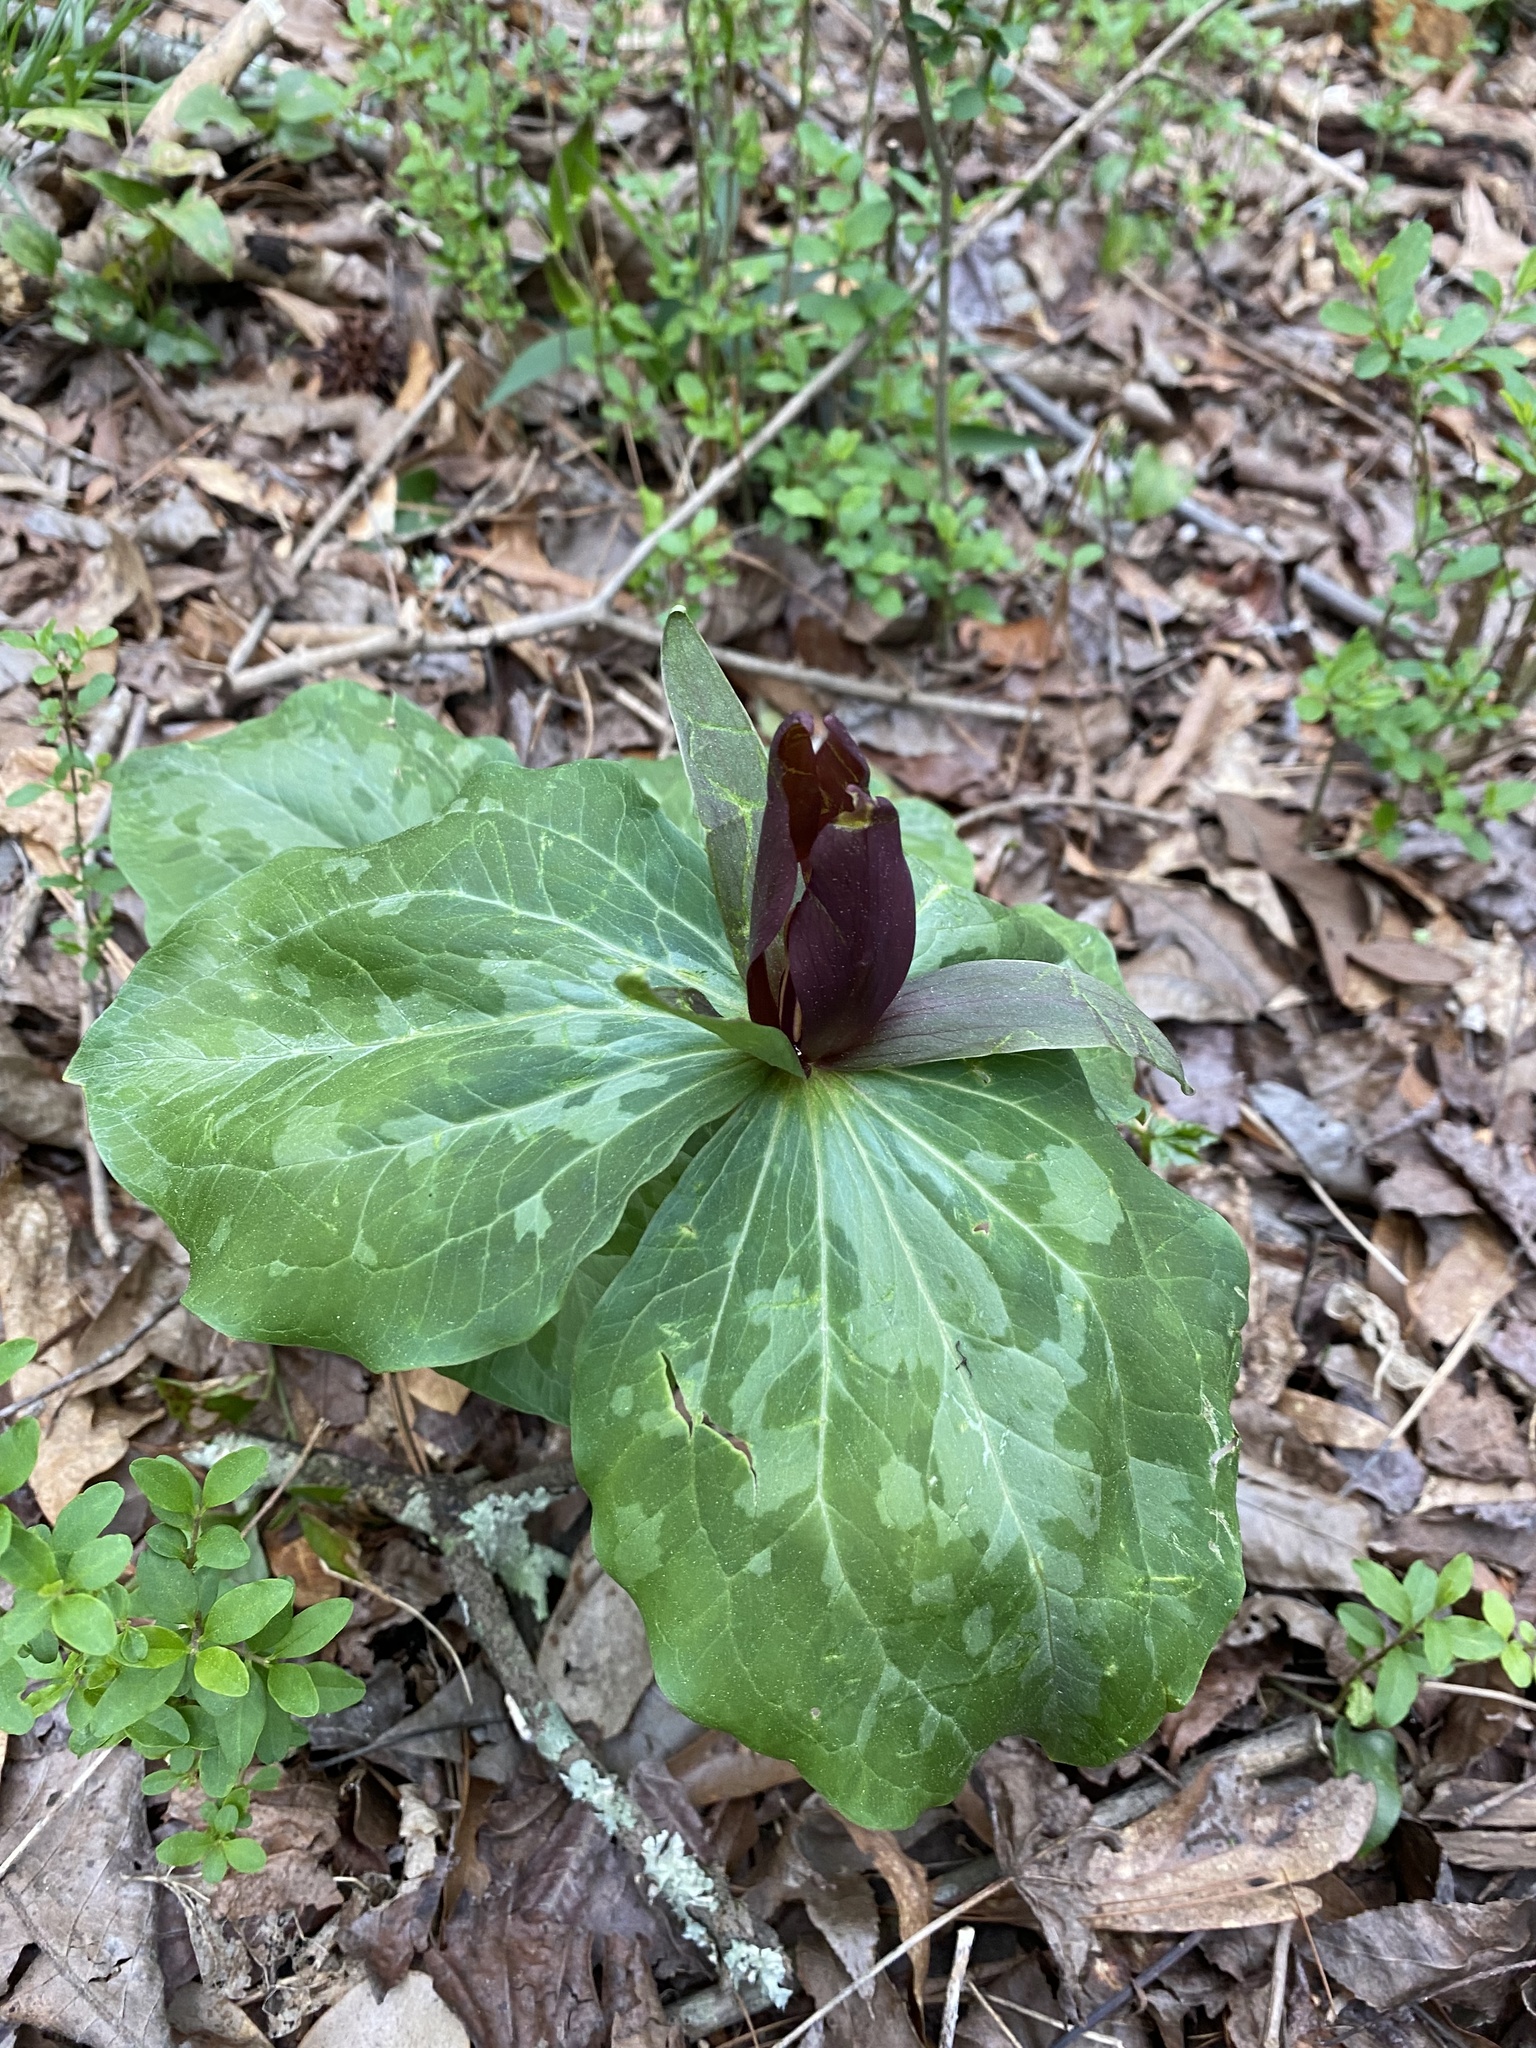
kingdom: Plantae
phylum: Tracheophyta
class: Liliopsida
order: Liliales
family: Melanthiaceae
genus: Trillium
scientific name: Trillium cuneatum
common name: Cuneate trillium
